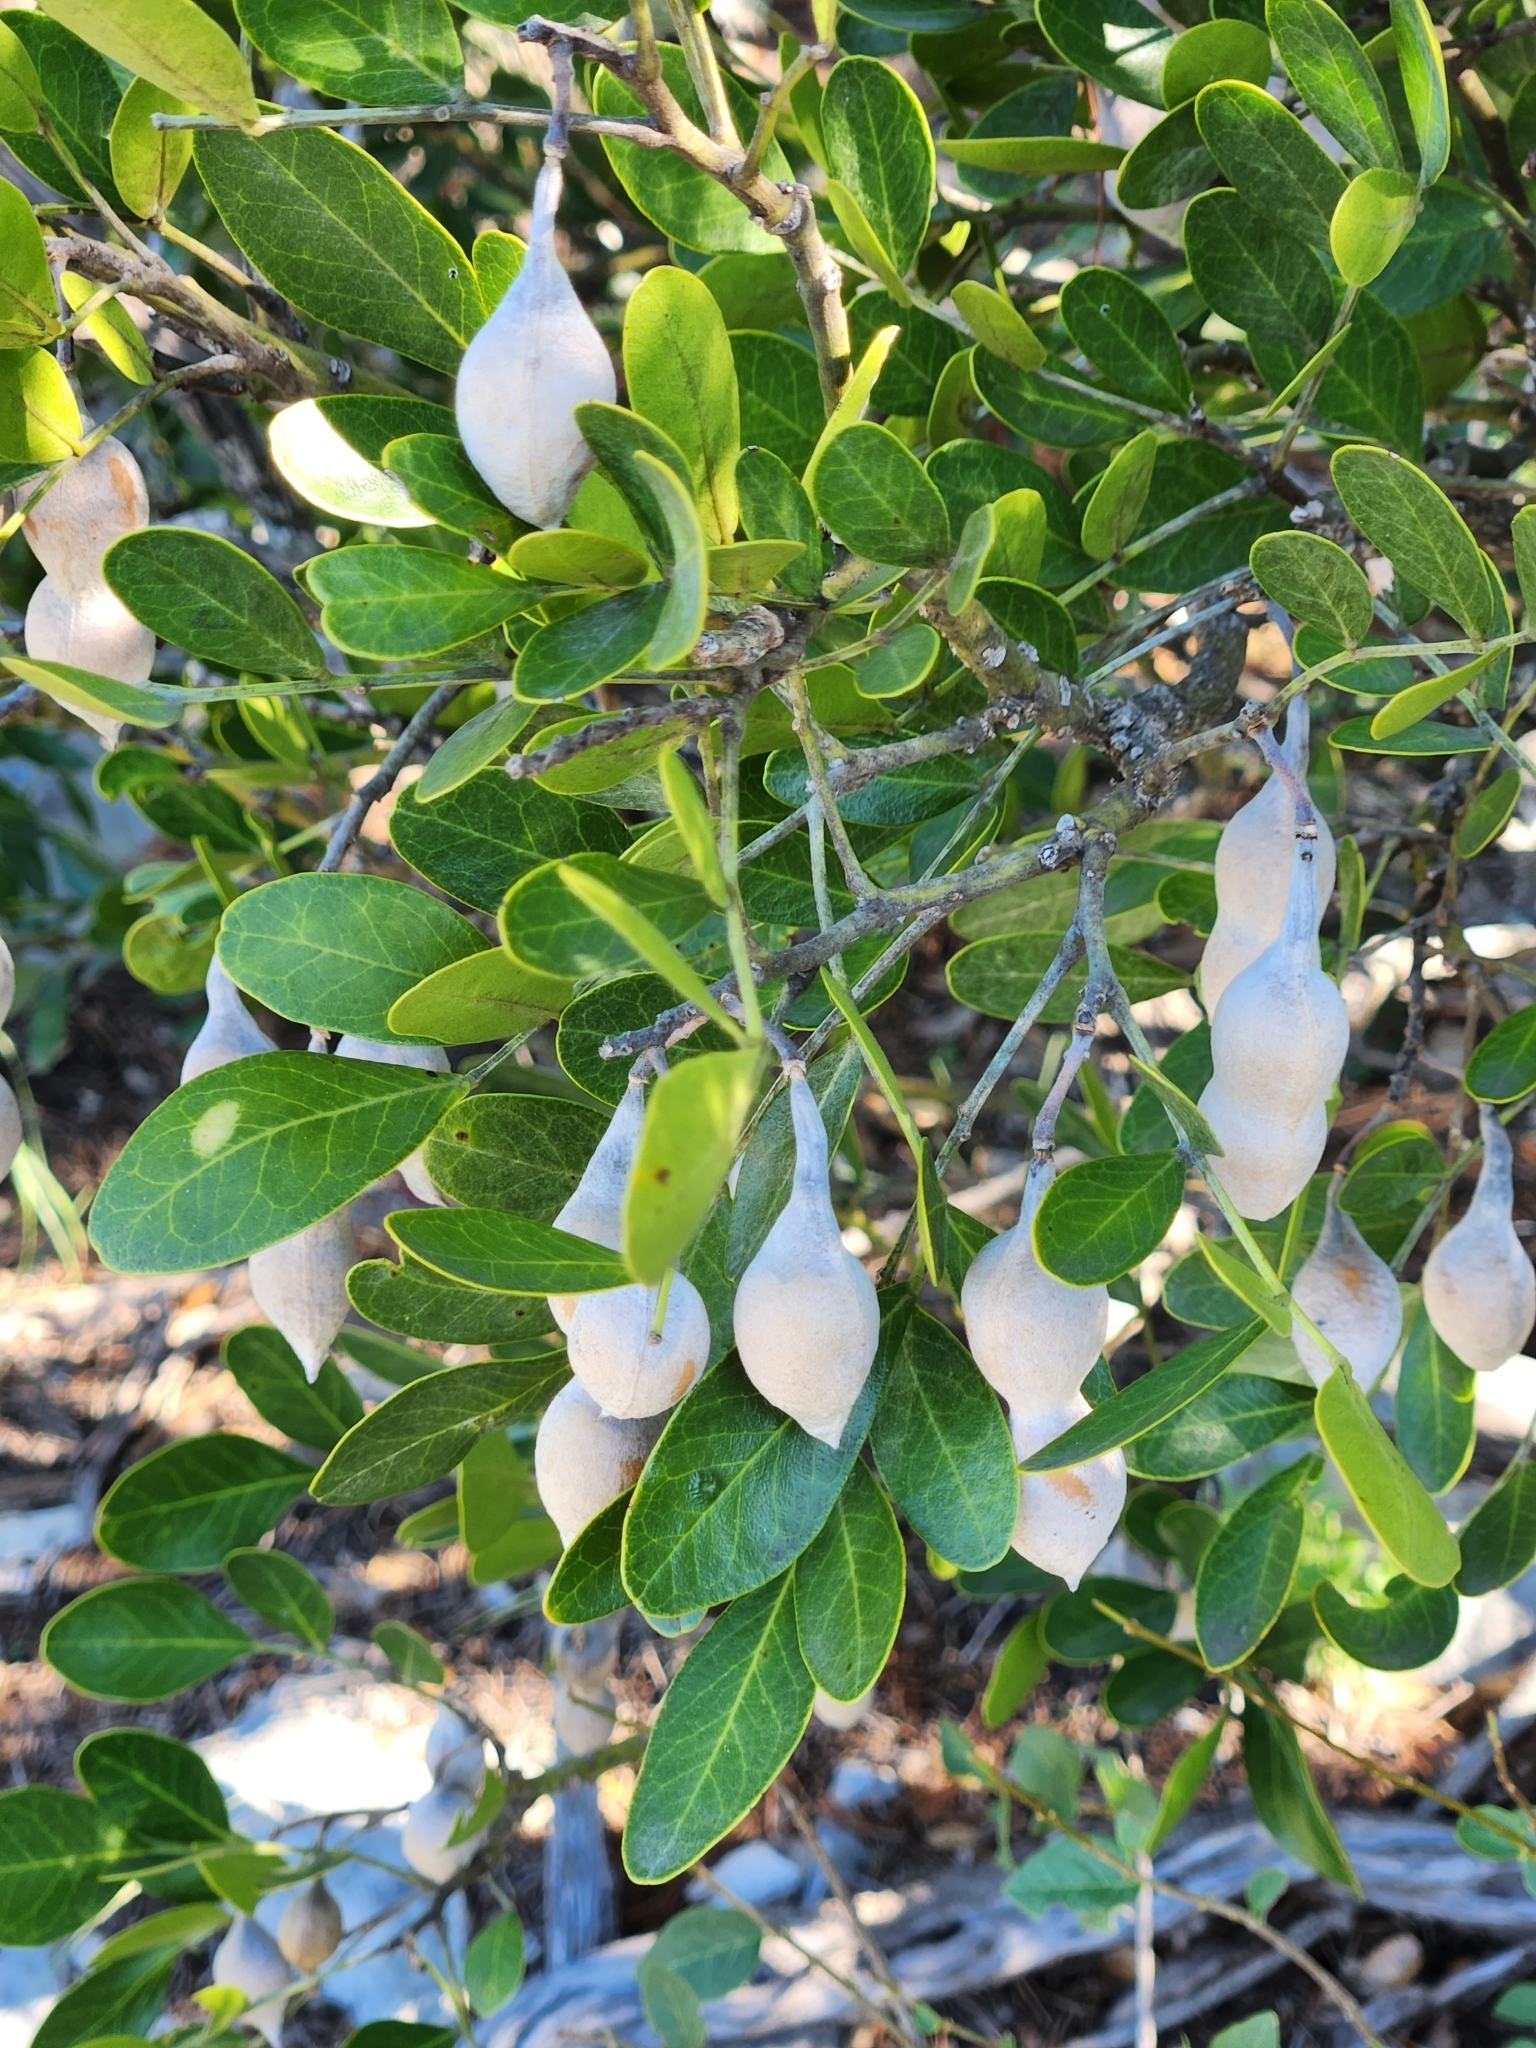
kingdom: Plantae
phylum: Tracheophyta
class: Magnoliopsida
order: Fabales
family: Fabaceae
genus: Dermatophyllum
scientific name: Dermatophyllum secundiflorum
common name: Texas-mountain-laurel
